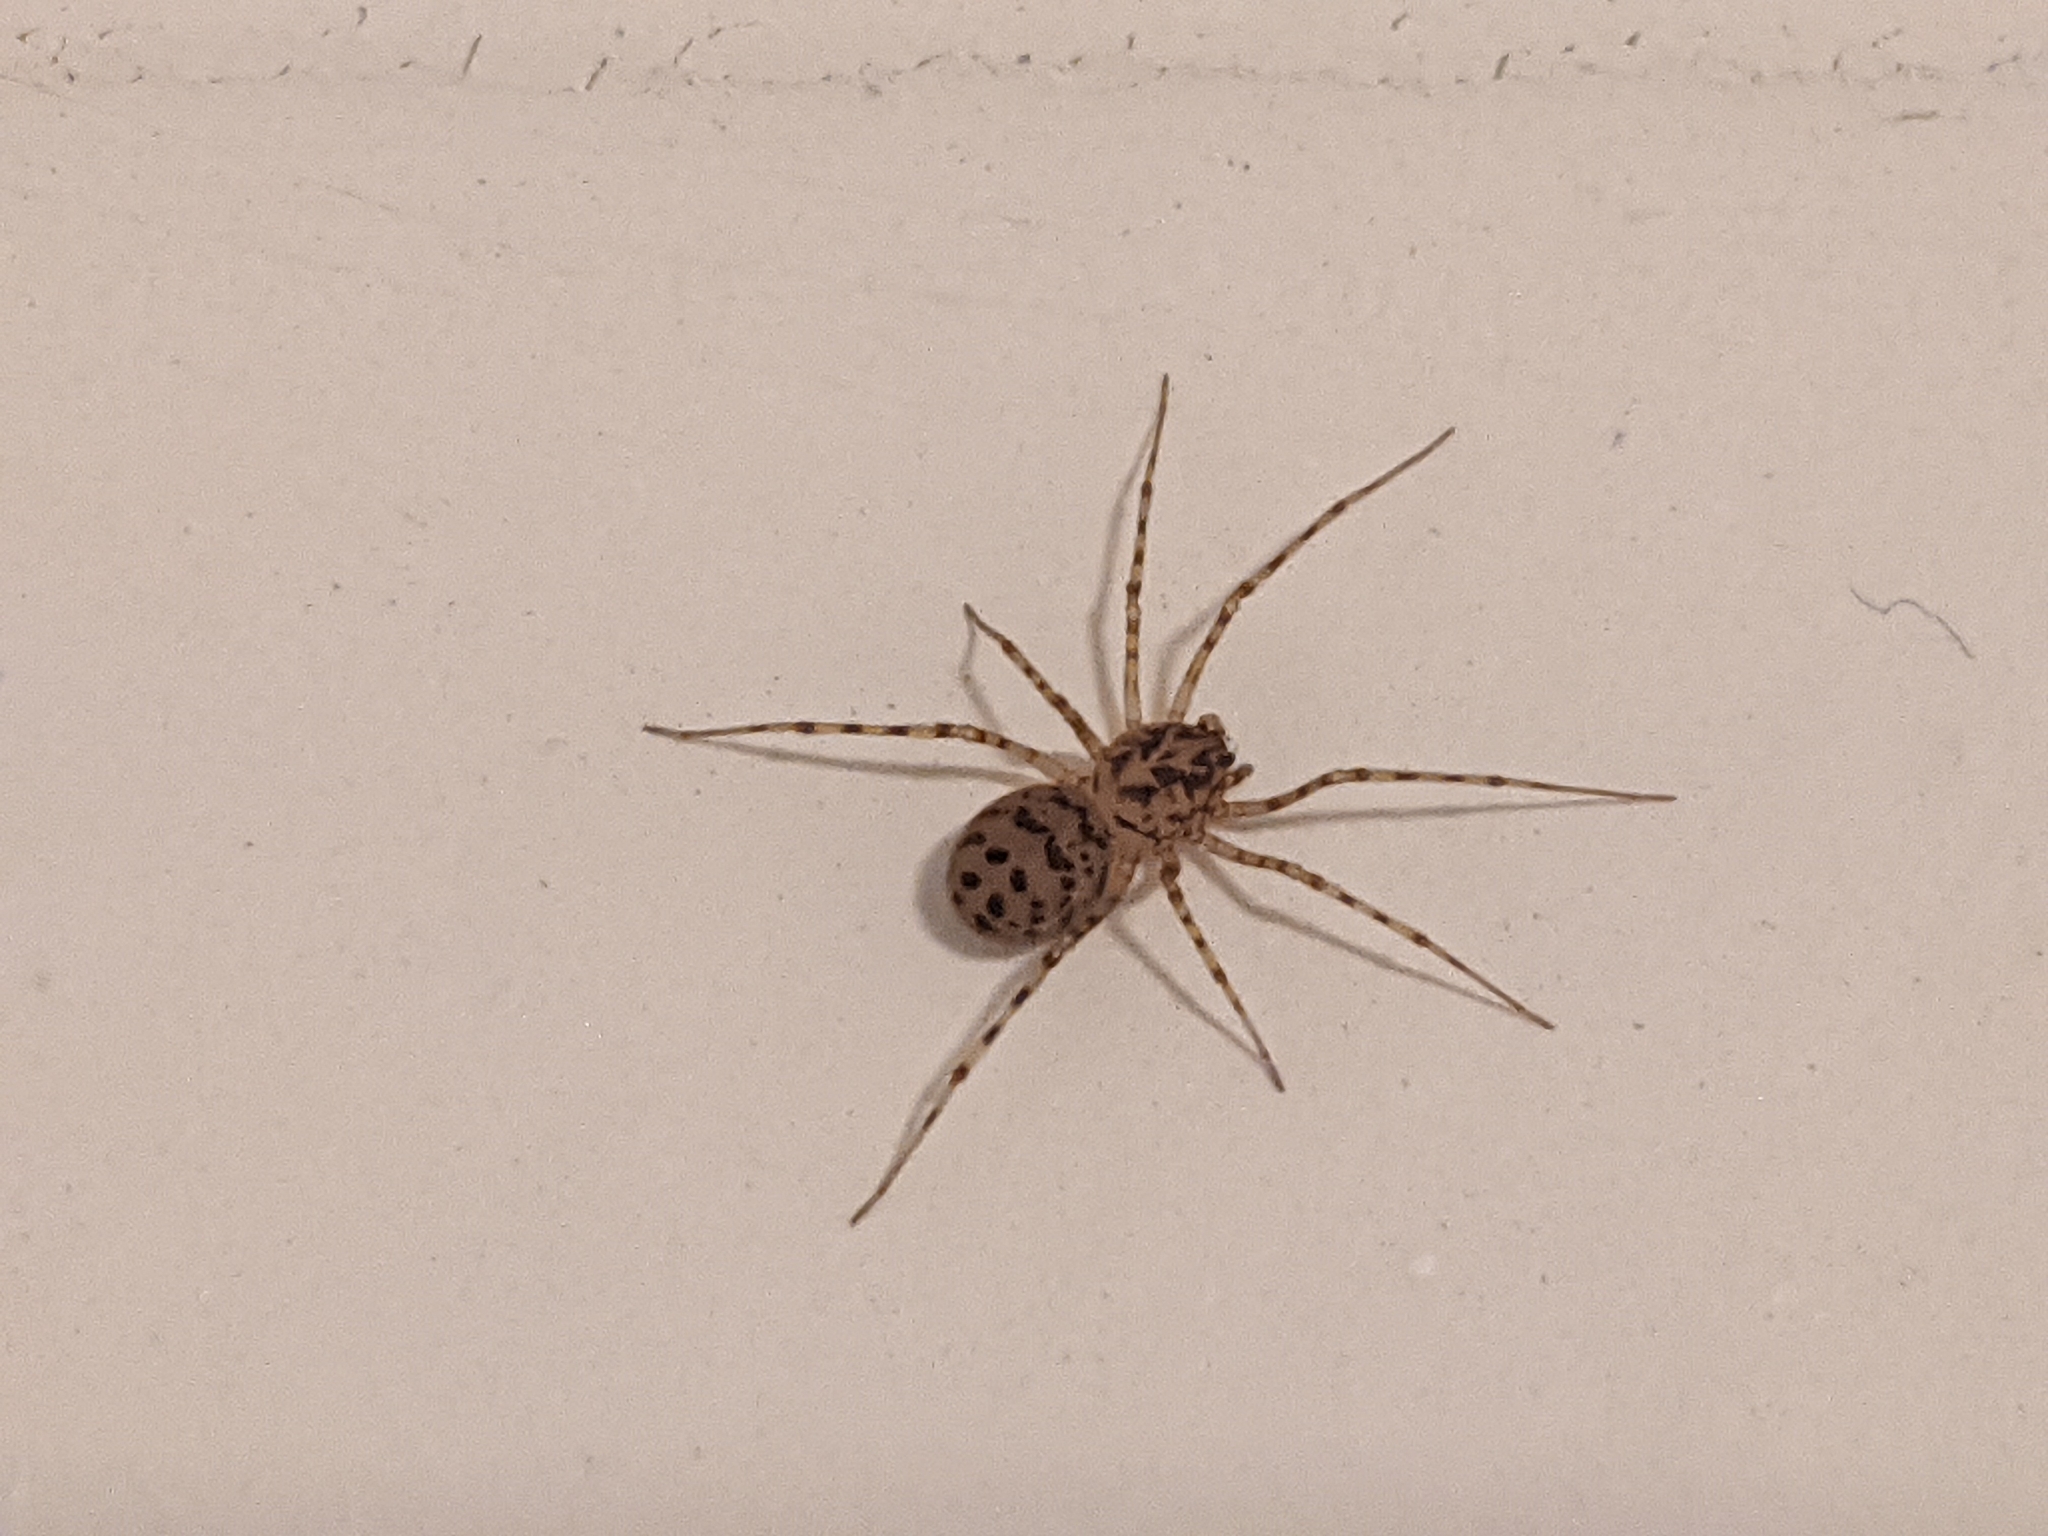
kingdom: Animalia
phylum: Arthropoda
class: Arachnida
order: Araneae
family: Scytodidae
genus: Scytodes
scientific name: Scytodes thoracica
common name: Spitting spider
